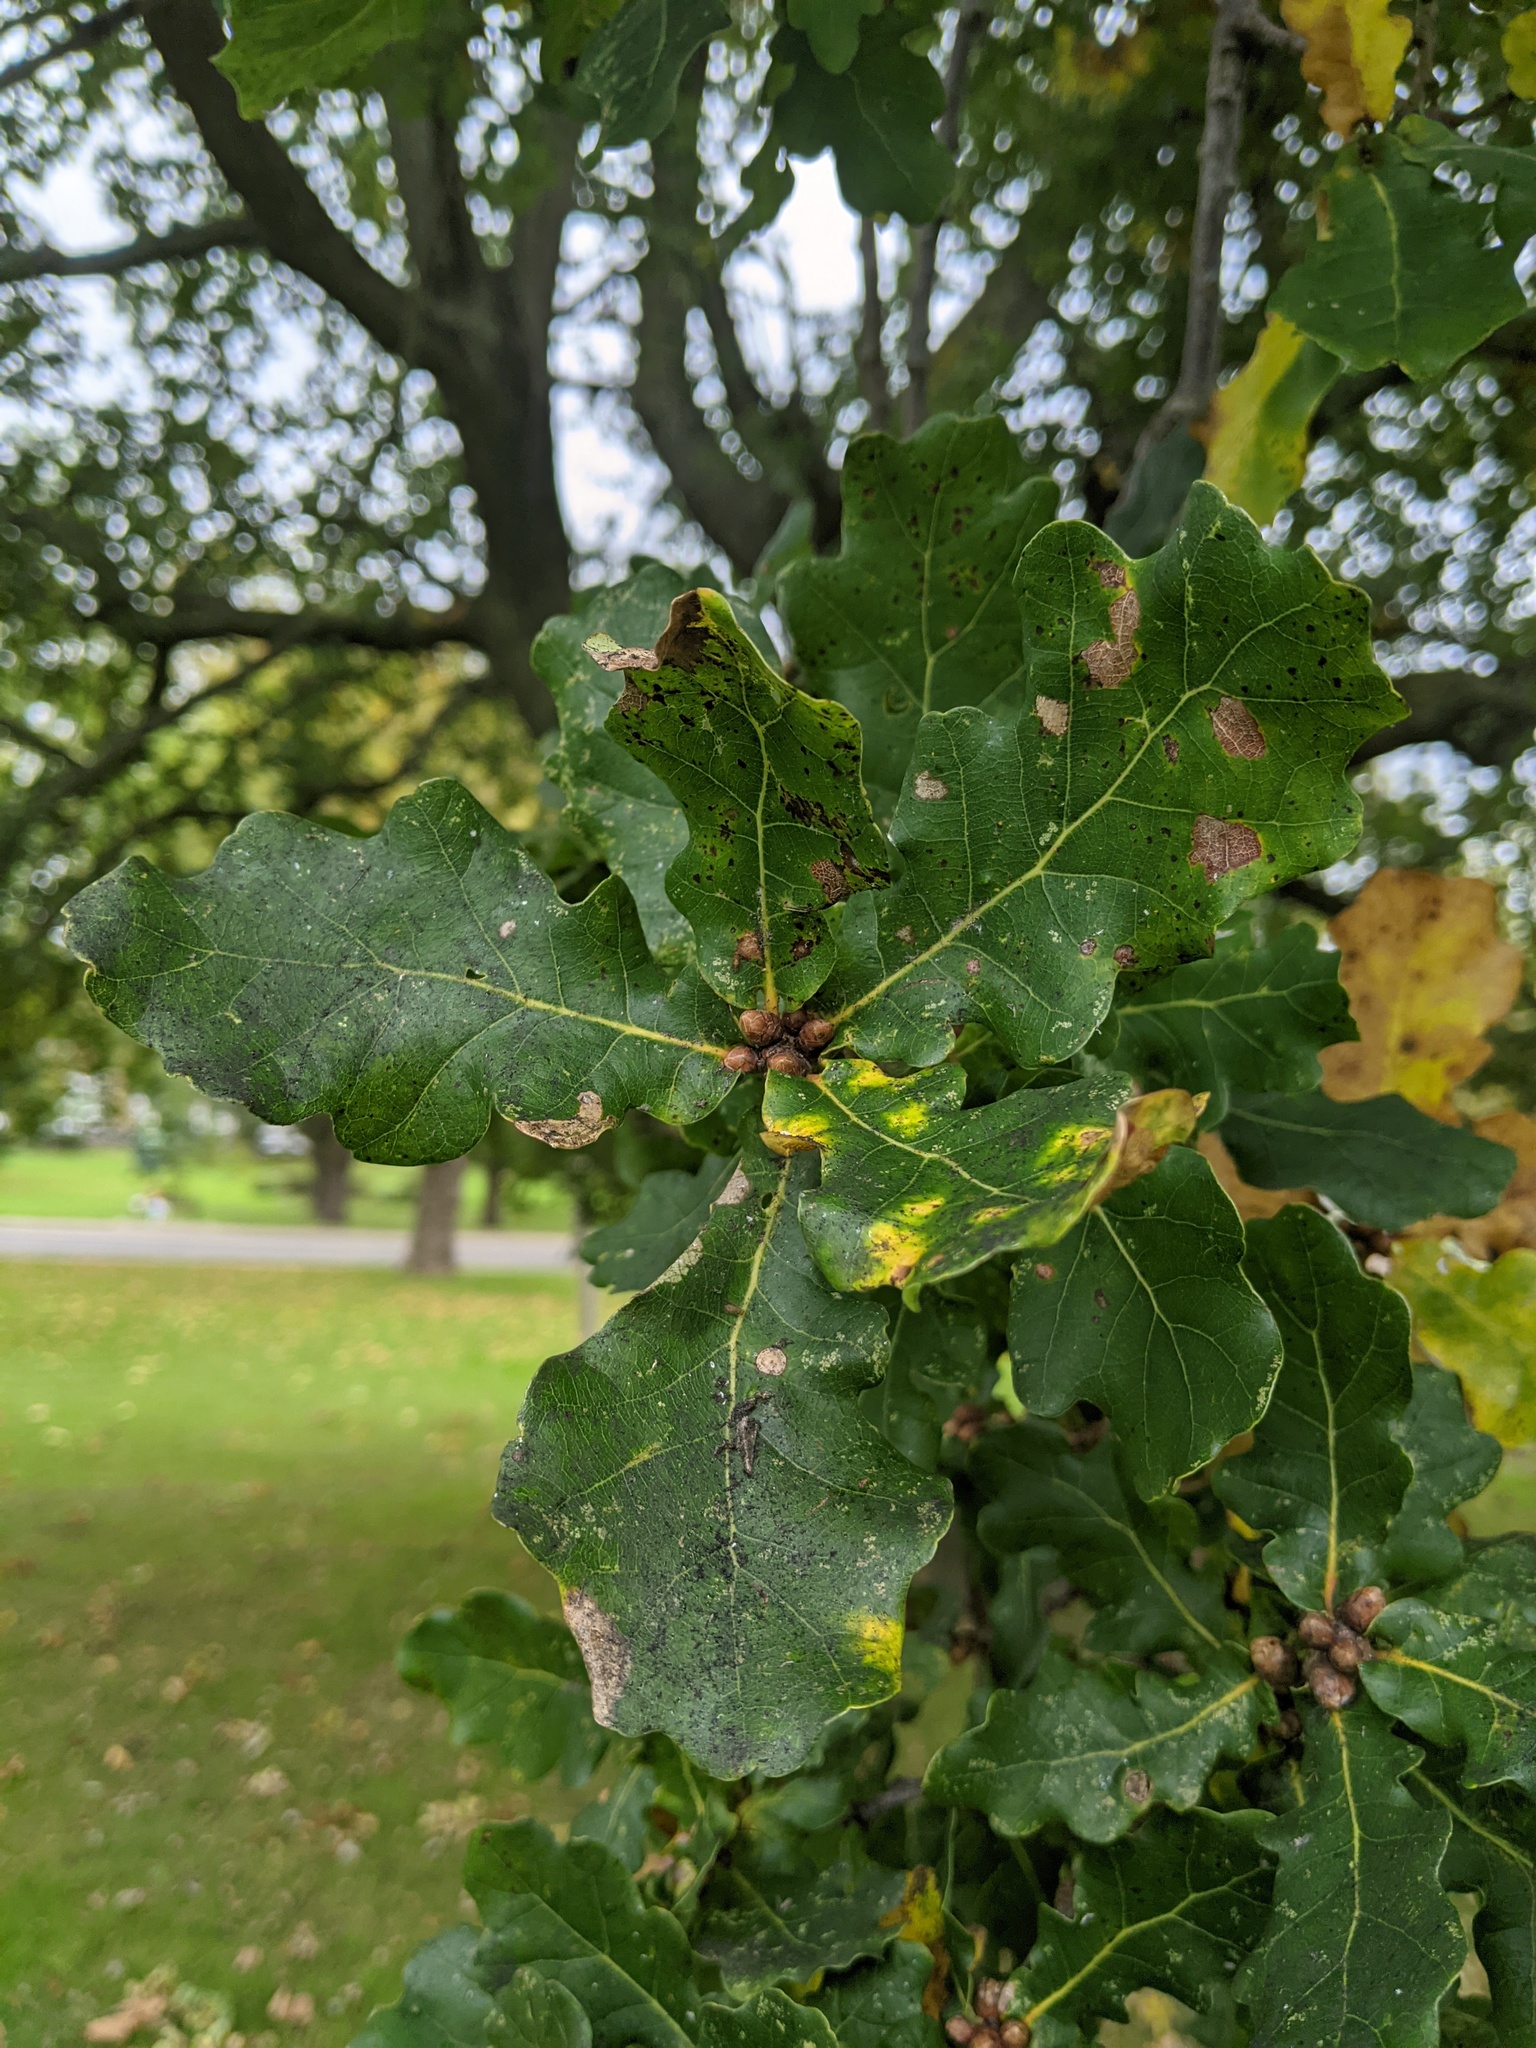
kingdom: Plantae
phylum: Tracheophyta
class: Magnoliopsida
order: Fagales
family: Fagaceae
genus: Quercus
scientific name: Quercus robur
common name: Pedunculate oak
